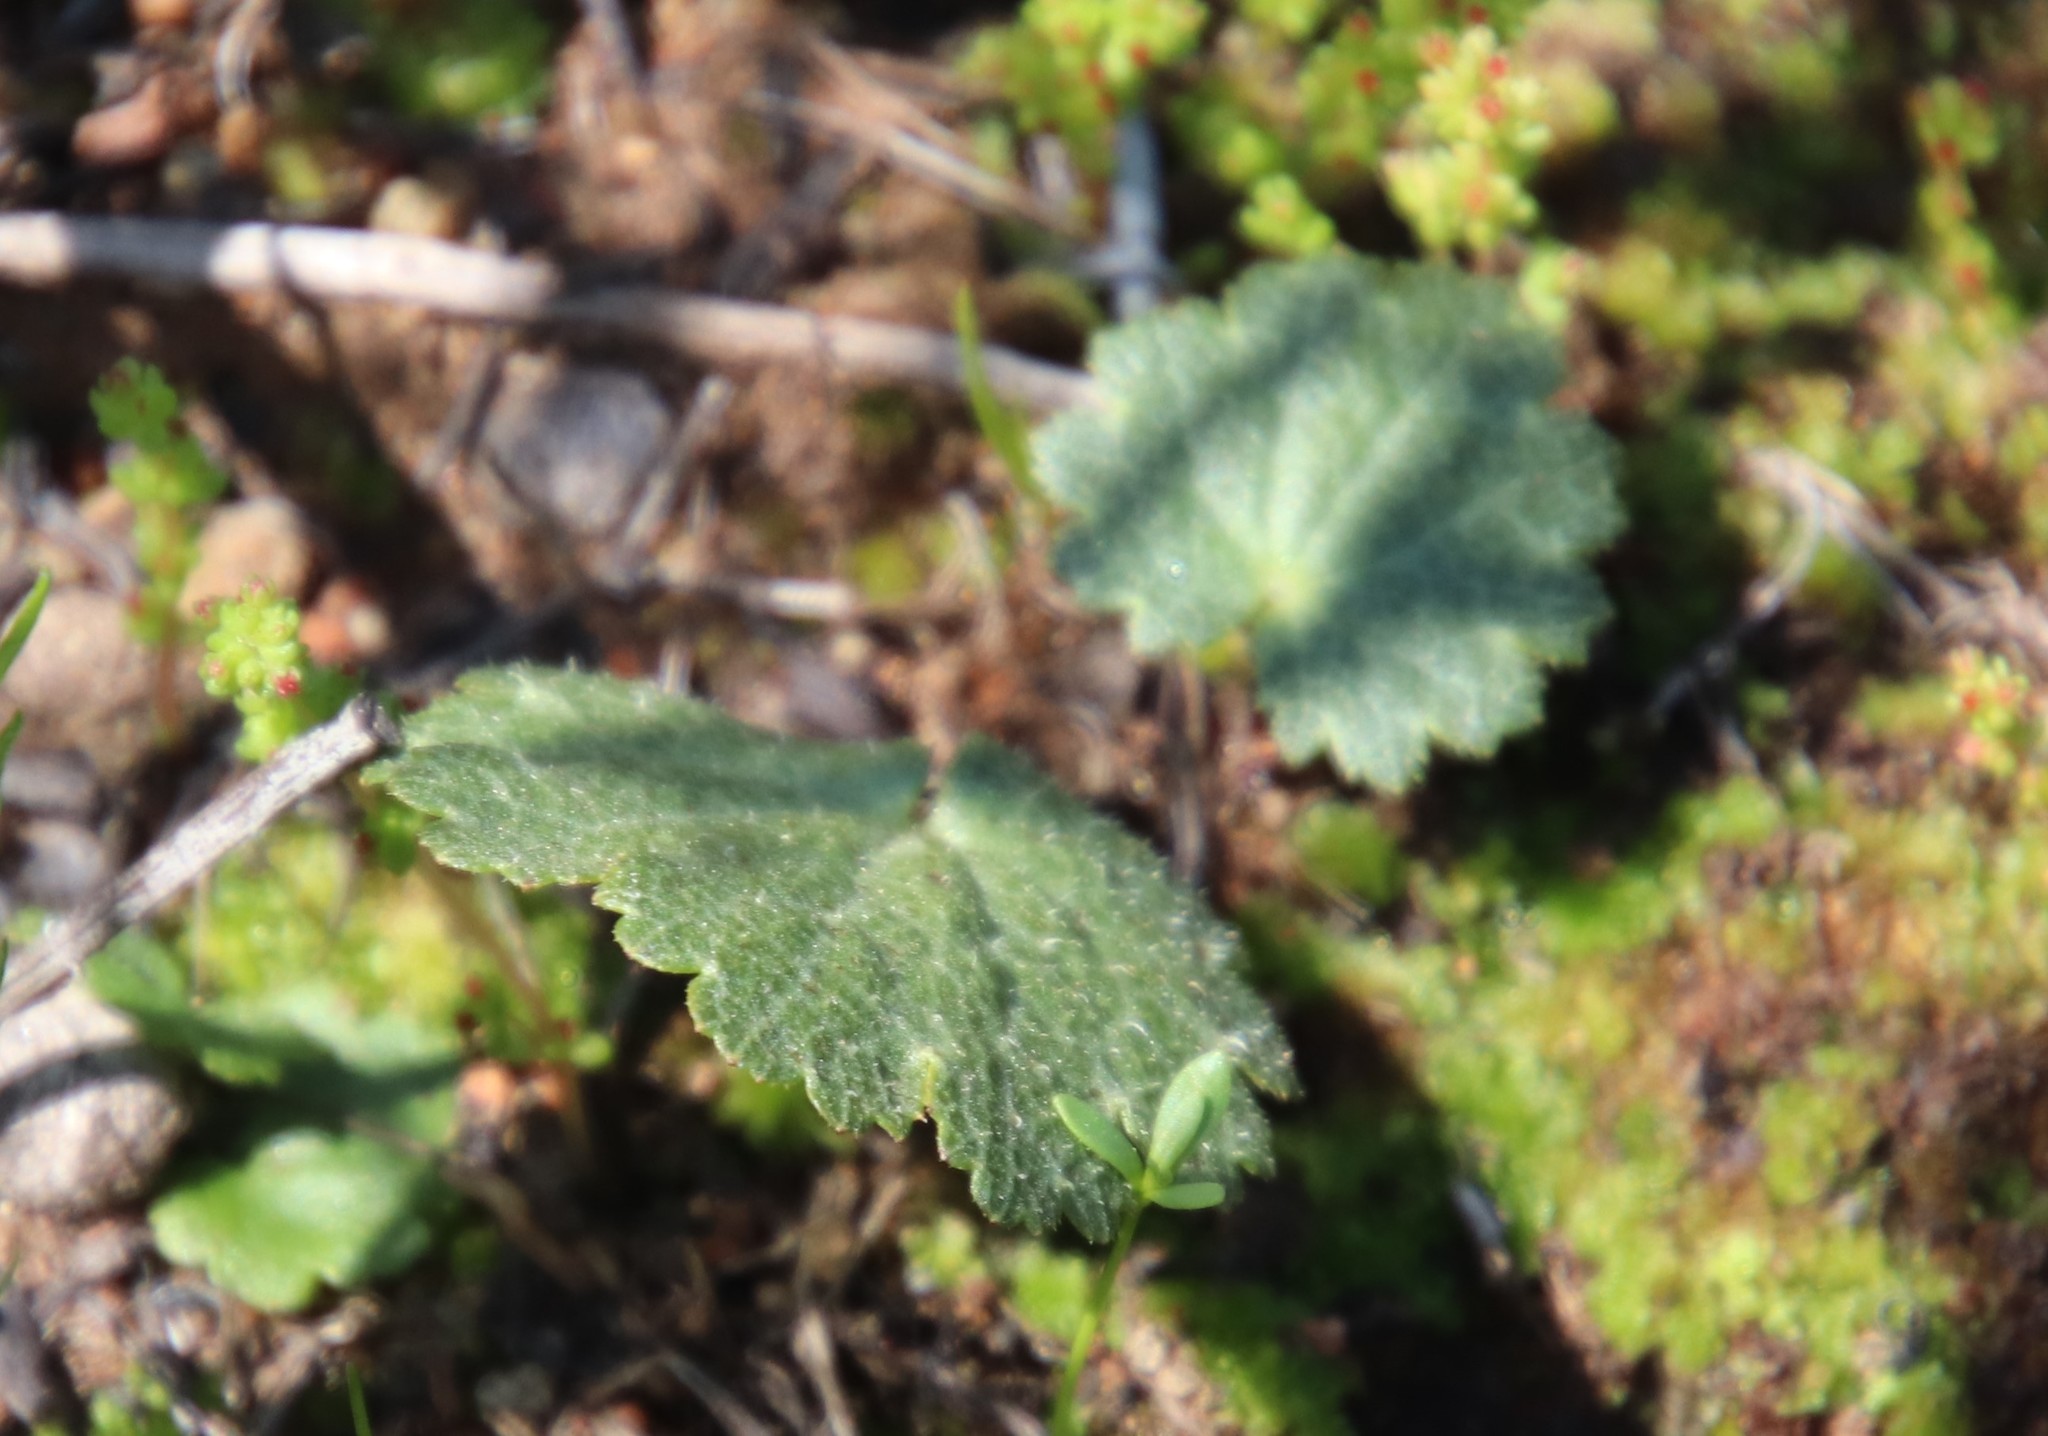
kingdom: Plantae
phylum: Tracheophyta
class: Magnoliopsida
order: Saxifragales
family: Saxifragaceae
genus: Jepsonia
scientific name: Jepsonia parryi
